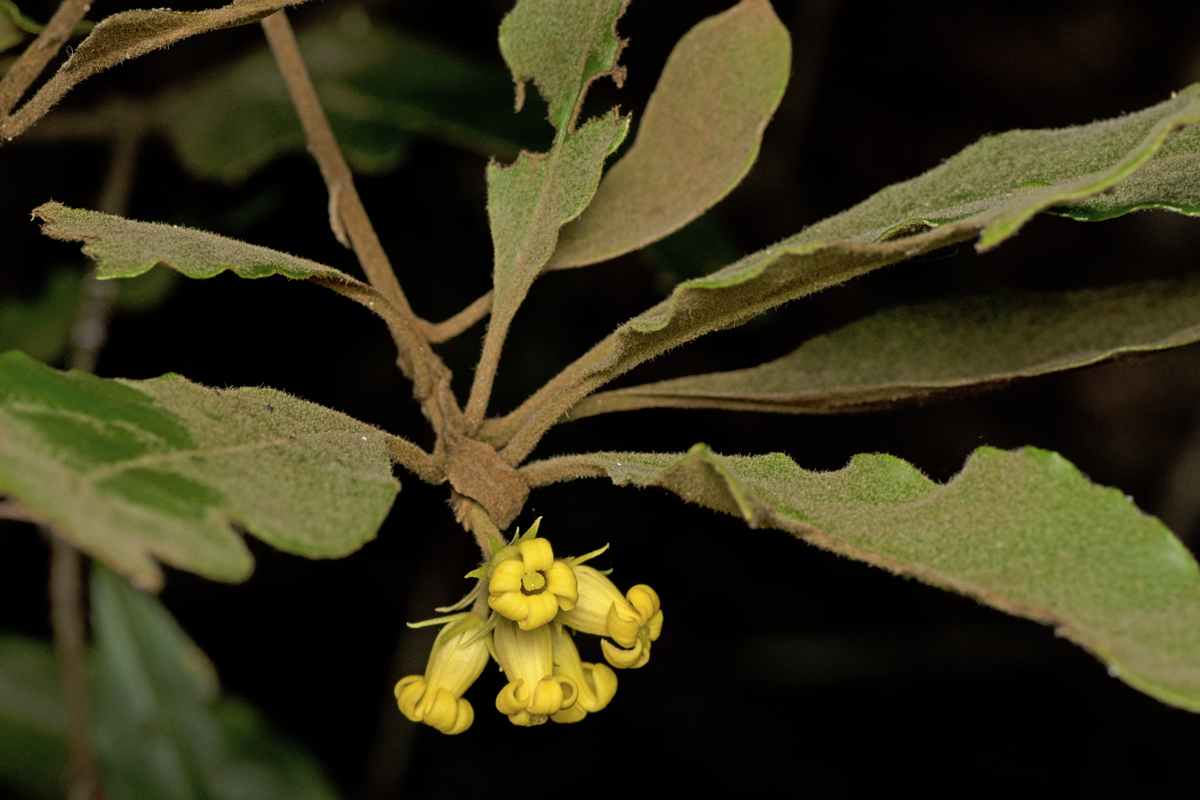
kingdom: Plantae
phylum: Tracheophyta
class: Magnoliopsida
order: Apiales
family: Pittosporaceae
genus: Pittosporum
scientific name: Pittosporum revolutum
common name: Brisbane-laurel
